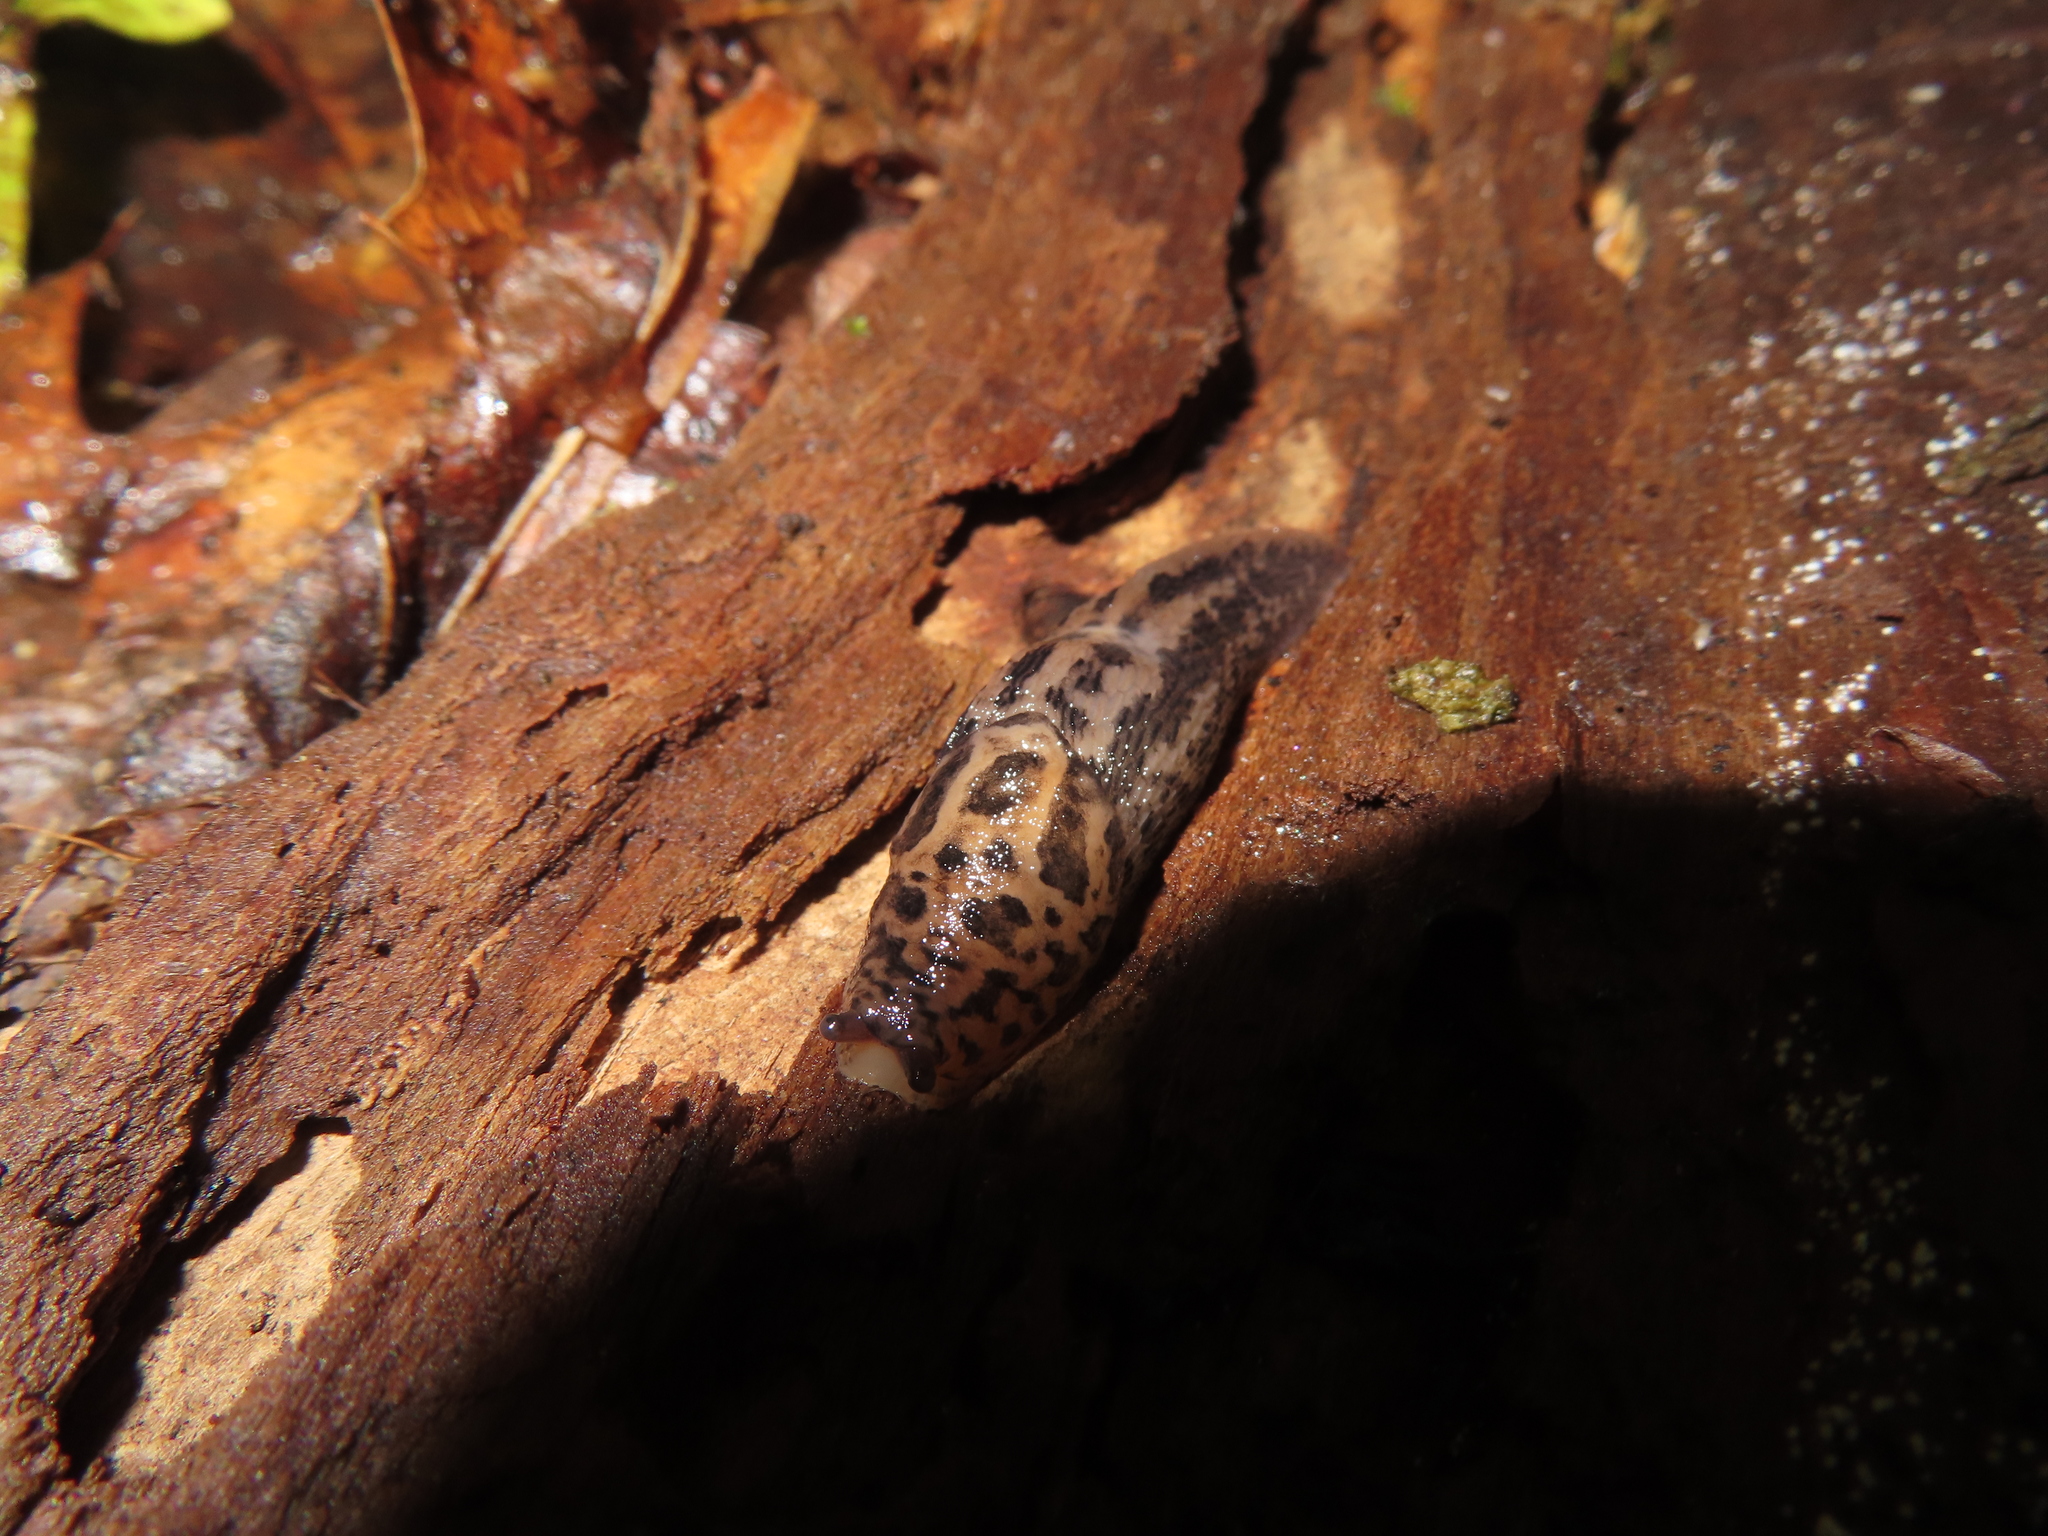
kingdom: Animalia
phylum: Mollusca
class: Gastropoda
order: Stylommatophora
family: Limacidae
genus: Limax
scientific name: Limax maximus
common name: Great grey slug
